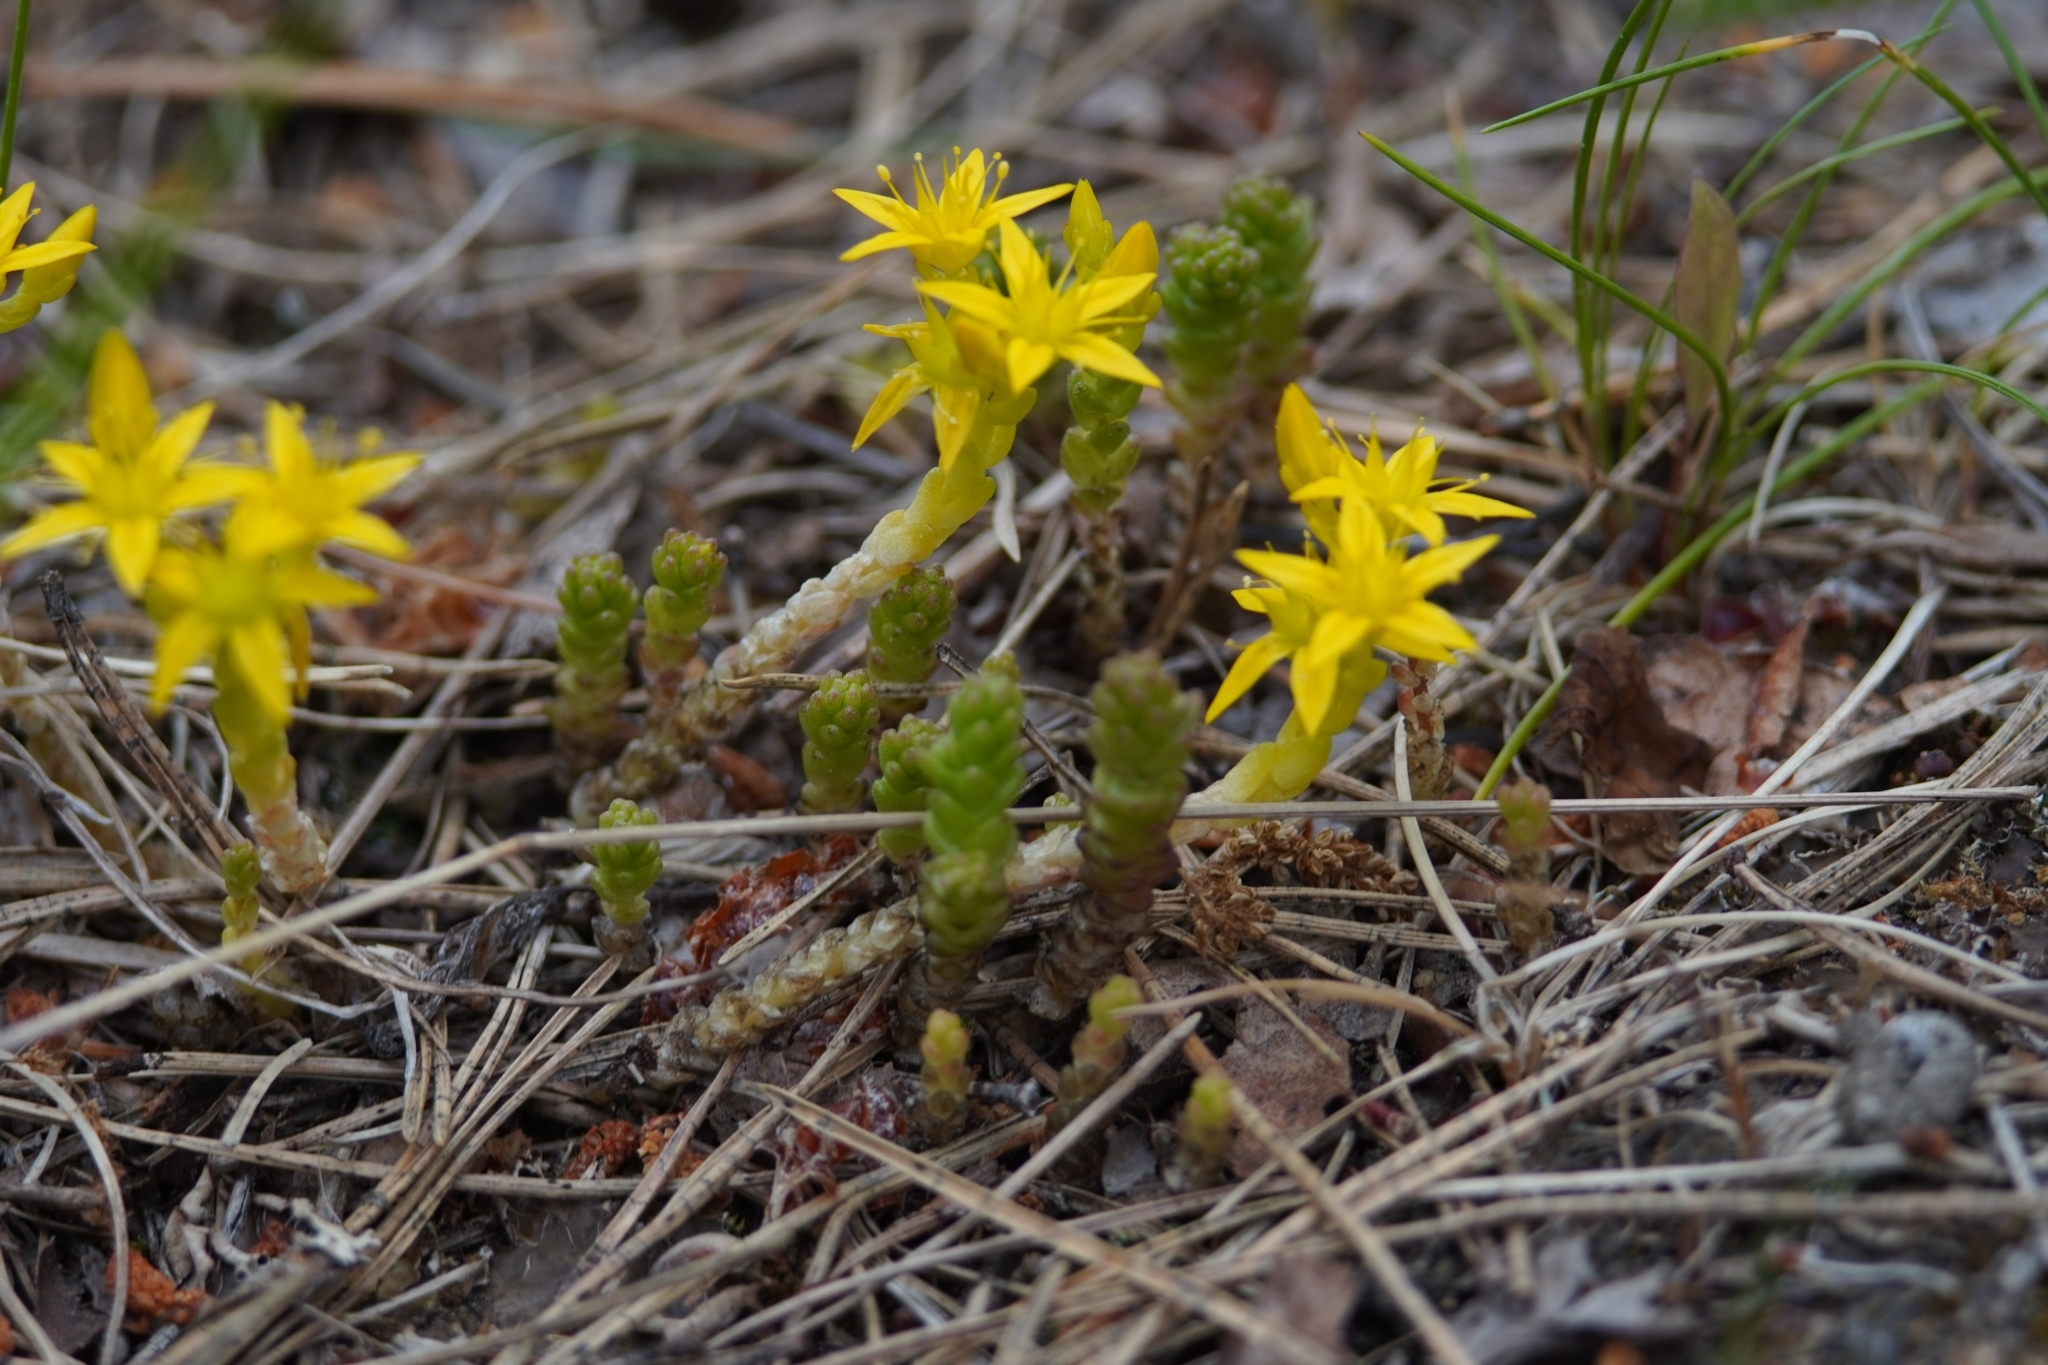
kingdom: Plantae
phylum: Tracheophyta
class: Magnoliopsida
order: Saxifragales
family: Crassulaceae
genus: Sedum
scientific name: Sedum acre
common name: Biting stonecrop
